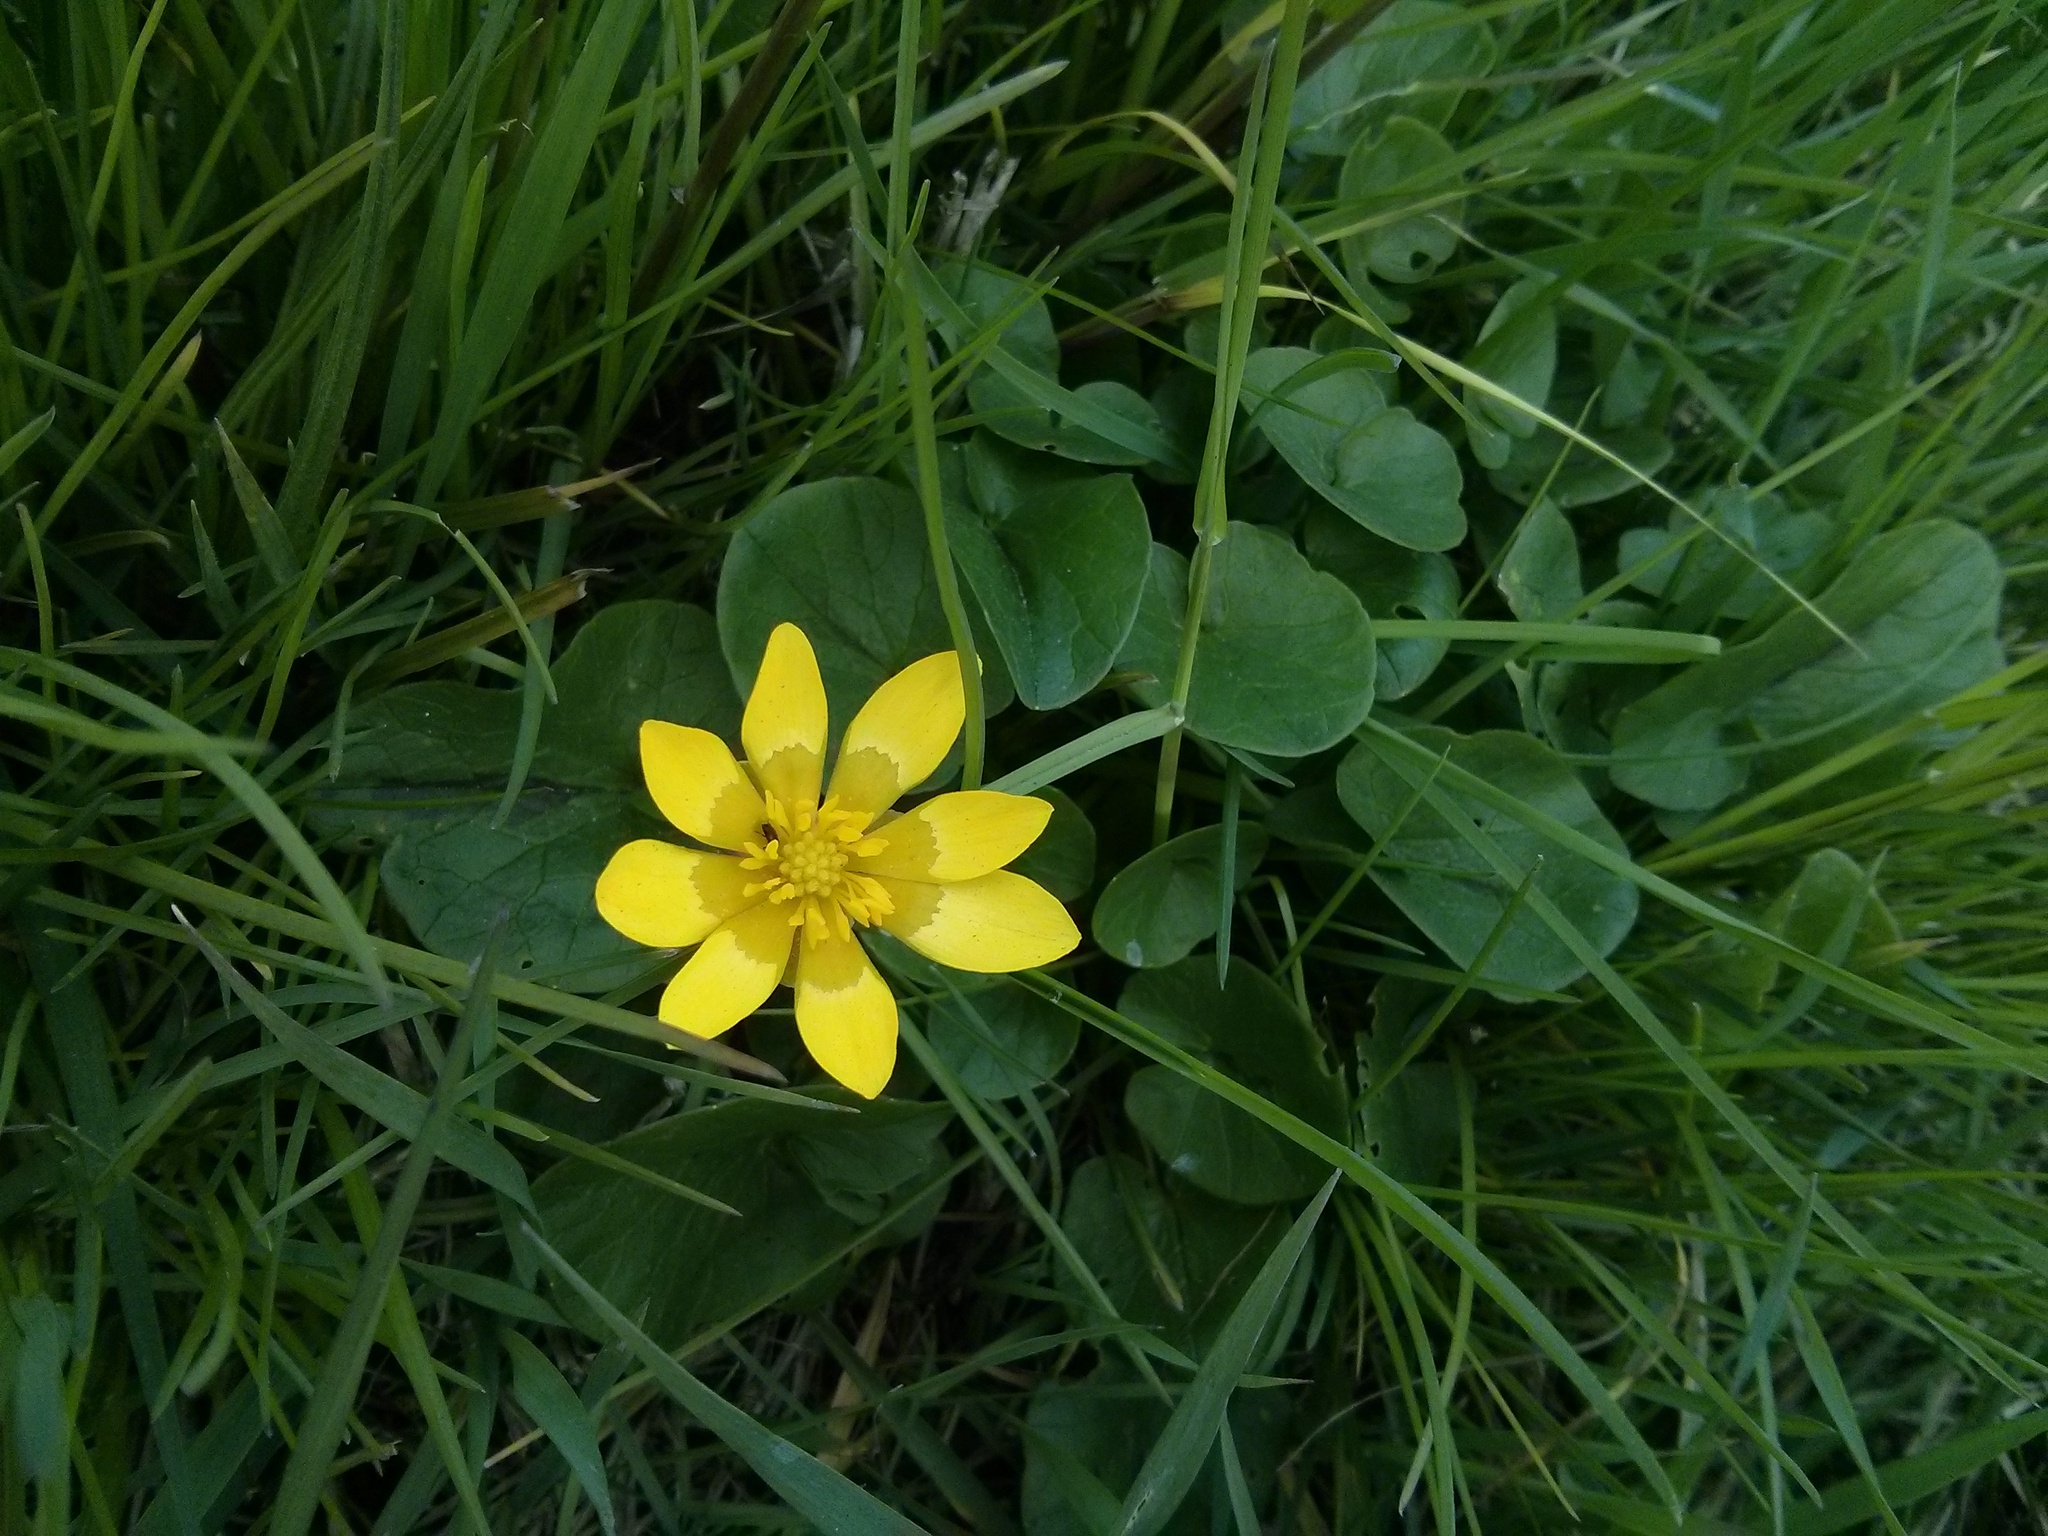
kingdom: Plantae
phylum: Tracheophyta
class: Magnoliopsida
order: Ranunculales
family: Ranunculaceae
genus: Ficaria
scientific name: Ficaria verna
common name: Lesser celandine
